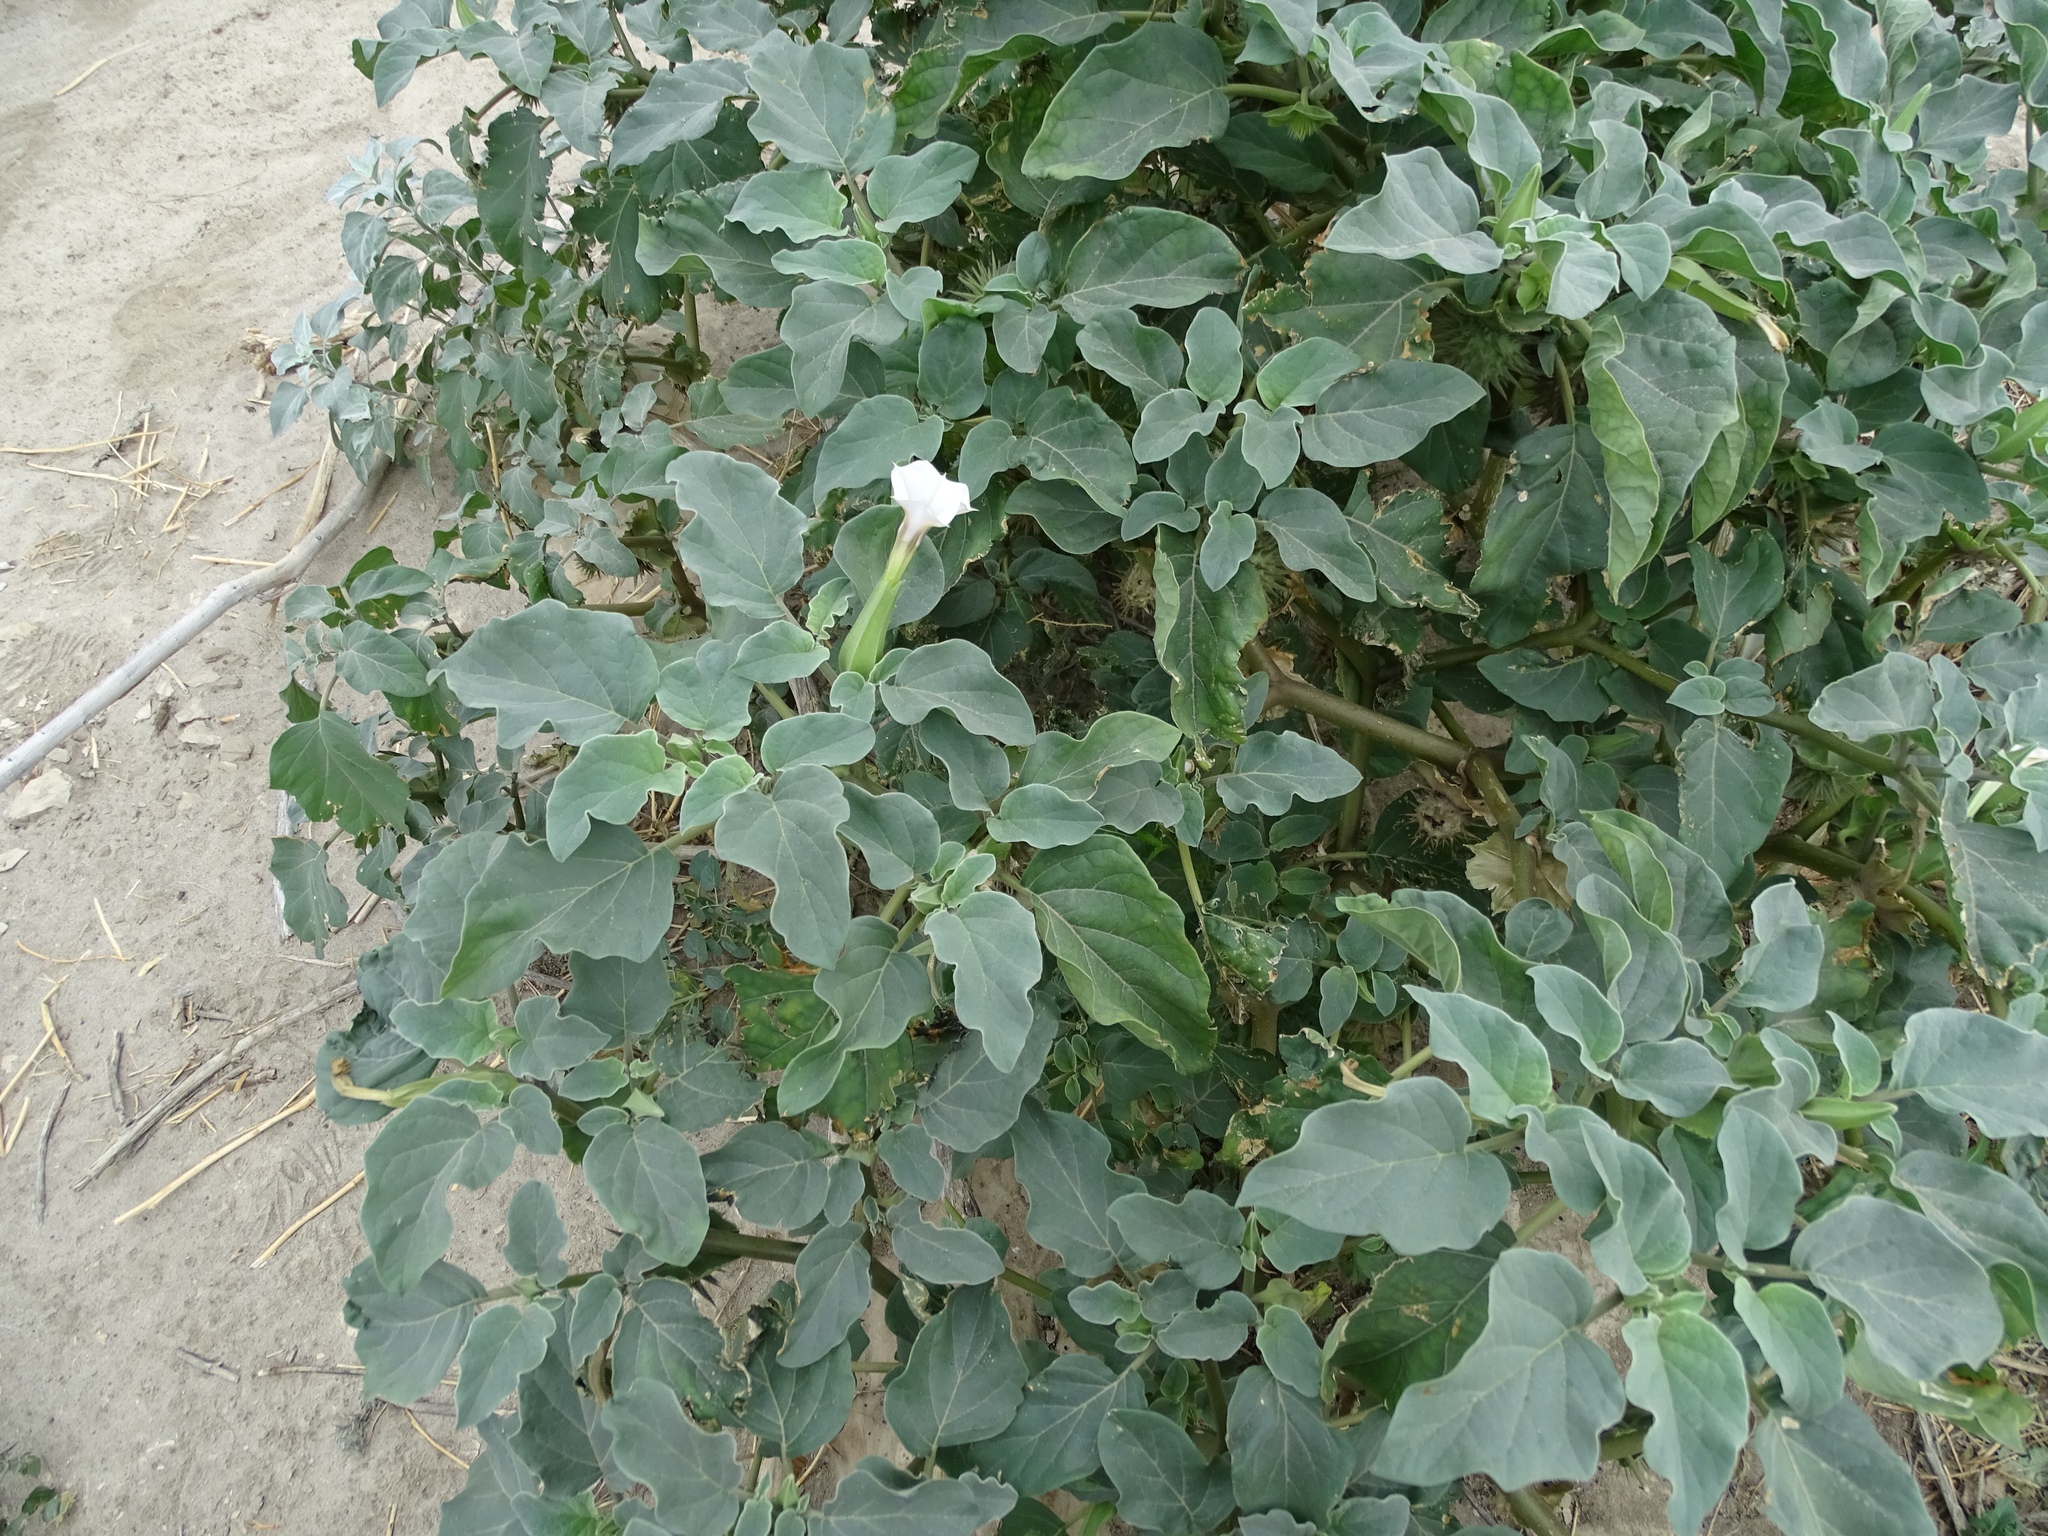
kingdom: Plantae
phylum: Tracheophyta
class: Magnoliopsida
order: Solanales
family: Solanaceae
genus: Datura
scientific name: Datura discolor
